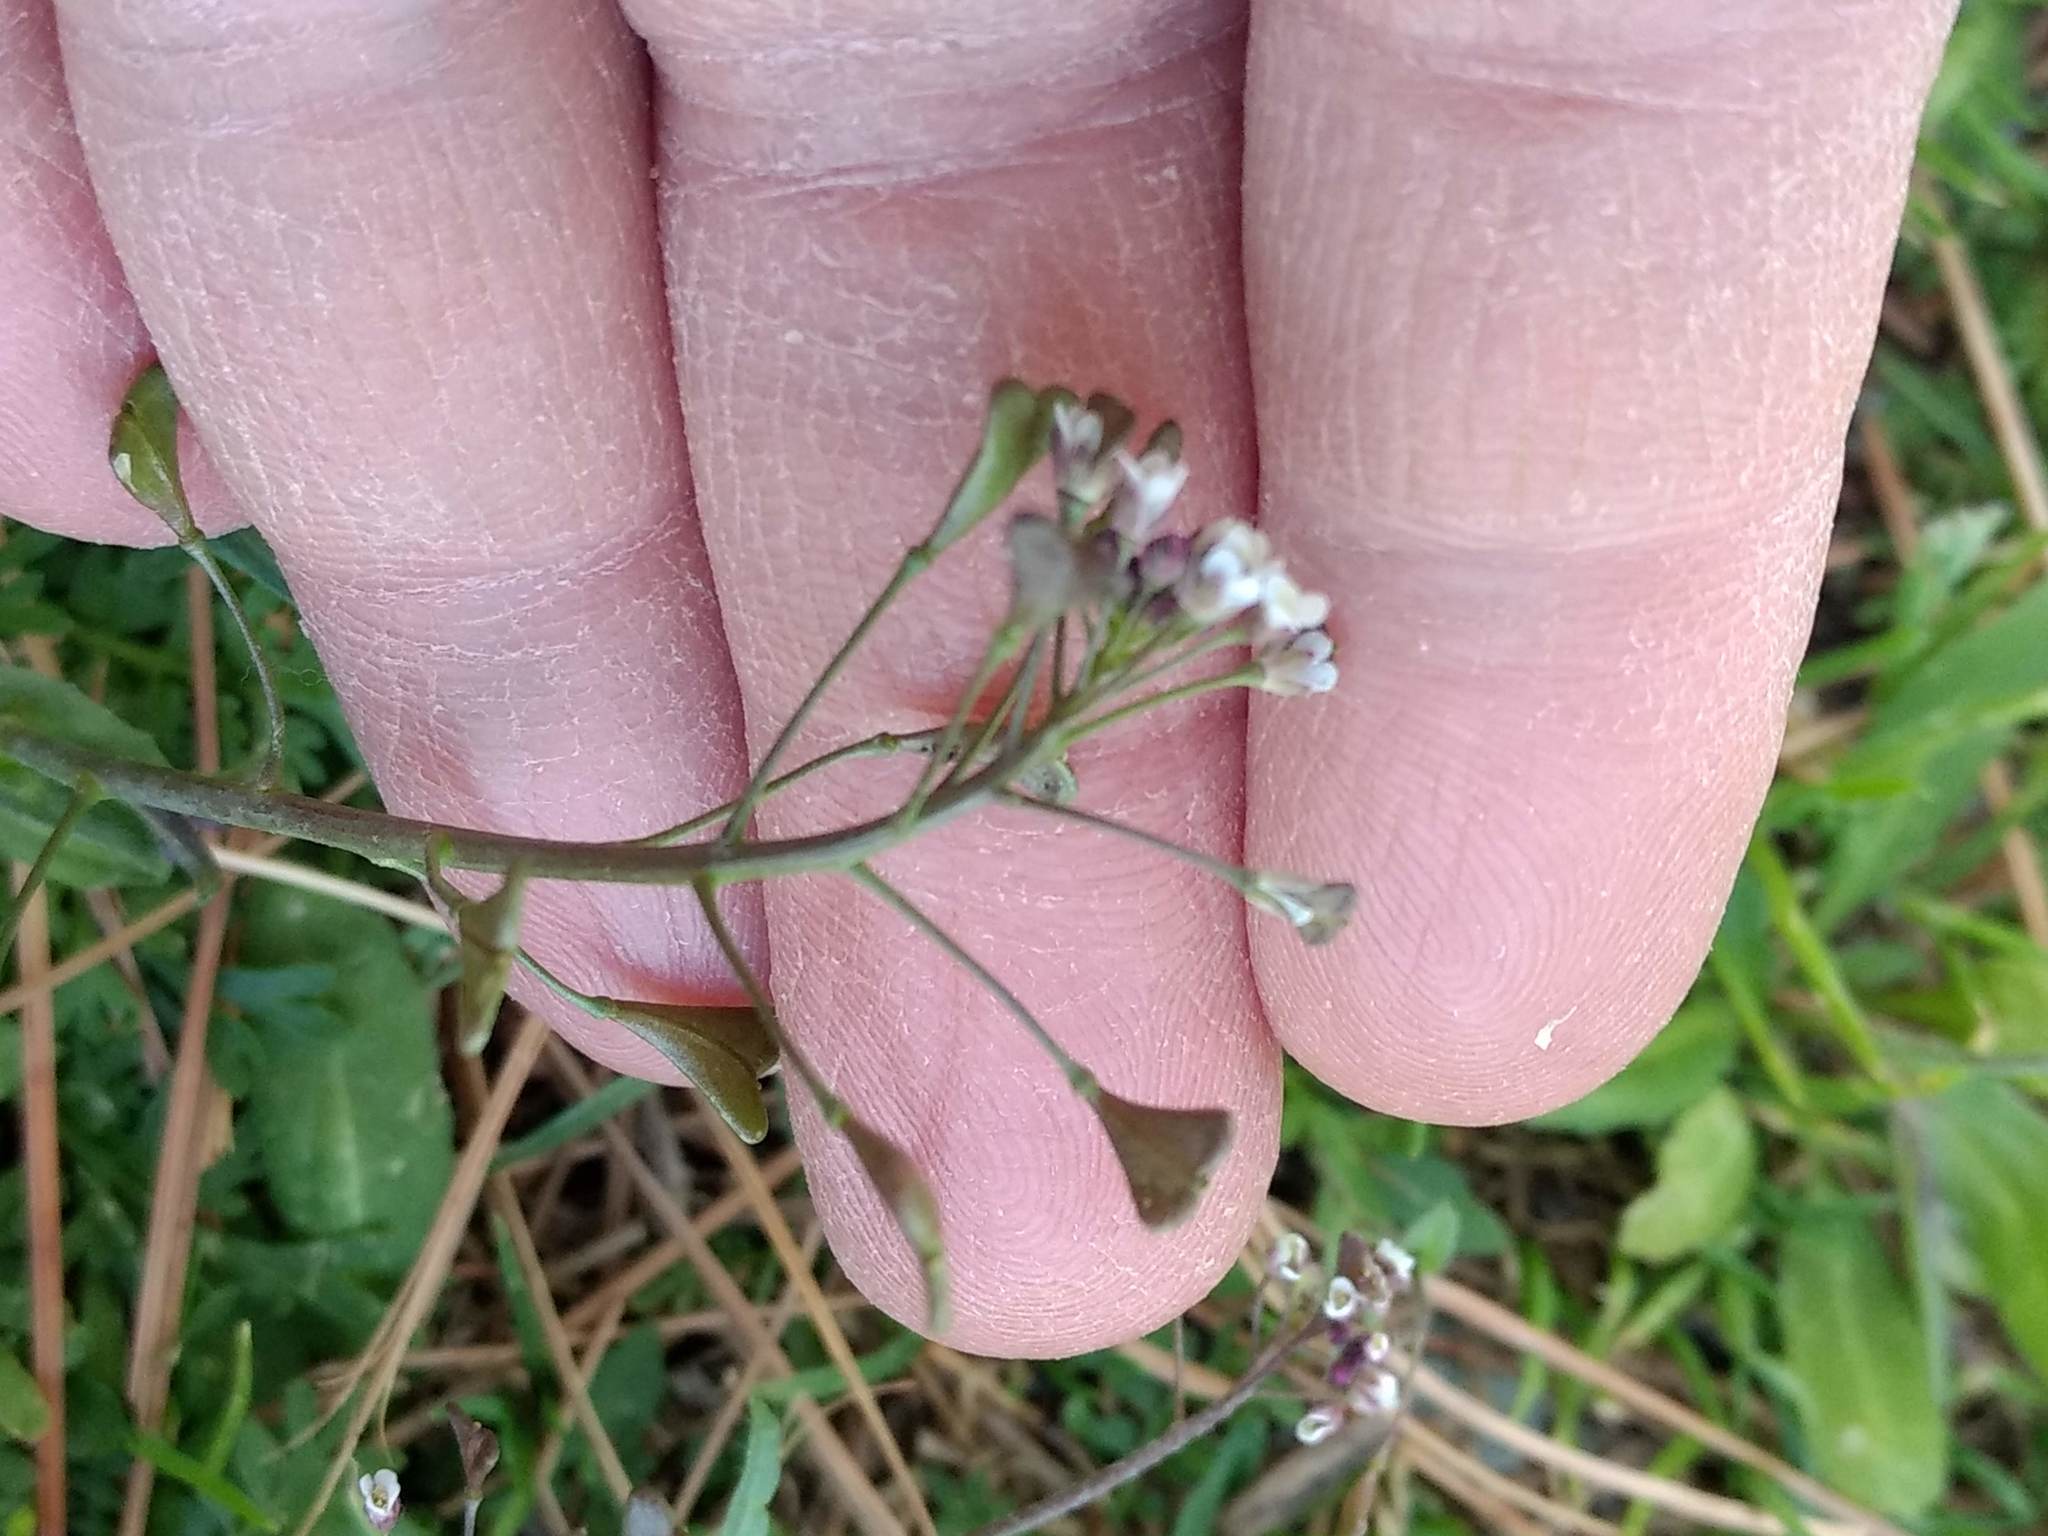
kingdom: Plantae
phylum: Tracheophyta
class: Magnoliopsida
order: Brassicales
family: Brassicaceae
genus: Capsella
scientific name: Capsella bursa-pastoris
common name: Shepherd's purse
